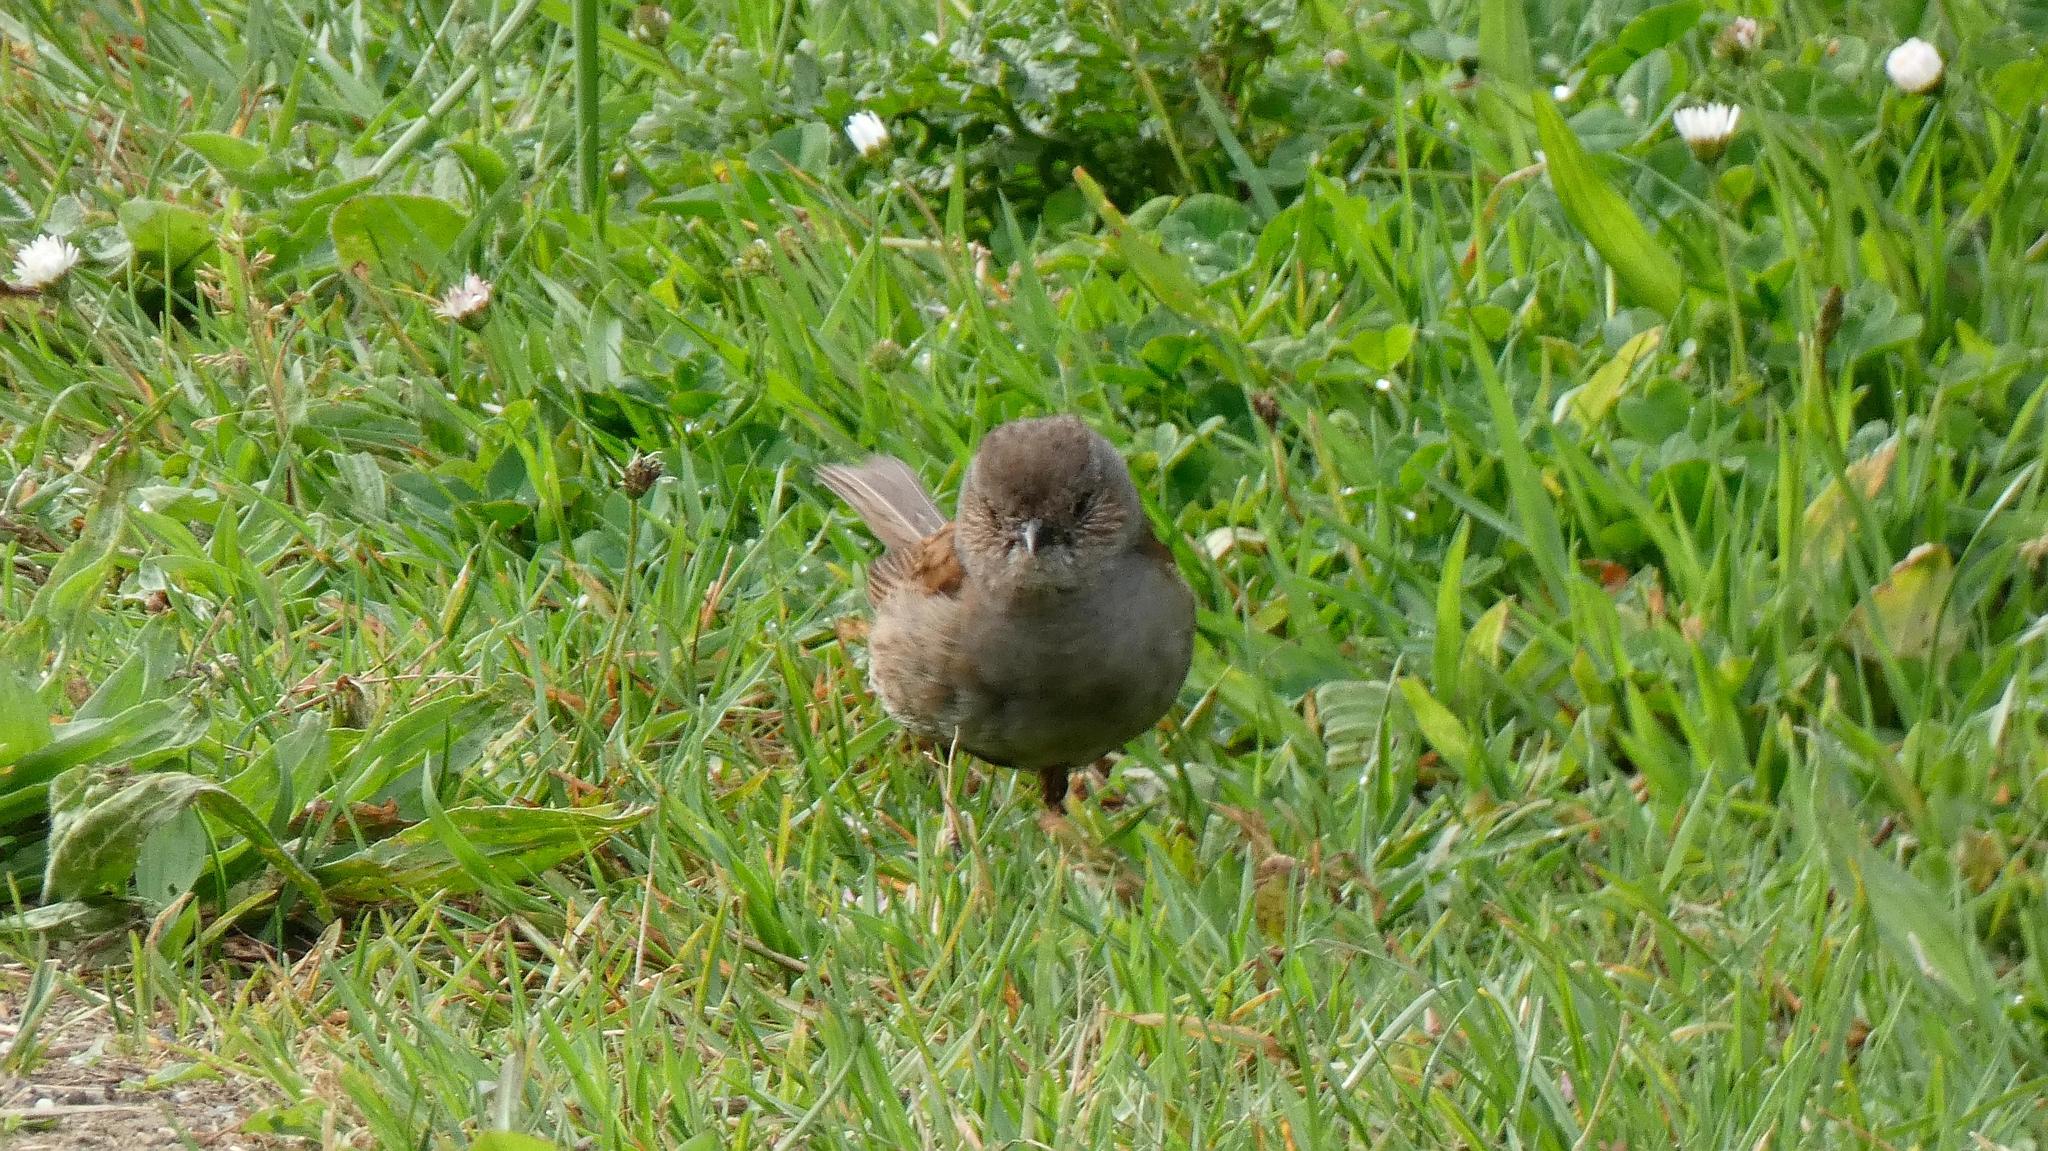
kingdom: Animalia
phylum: Chordata
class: Aves
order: Passeriformes
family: Prunellidae
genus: Prunella
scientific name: Prunella modularis
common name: Dunnock
